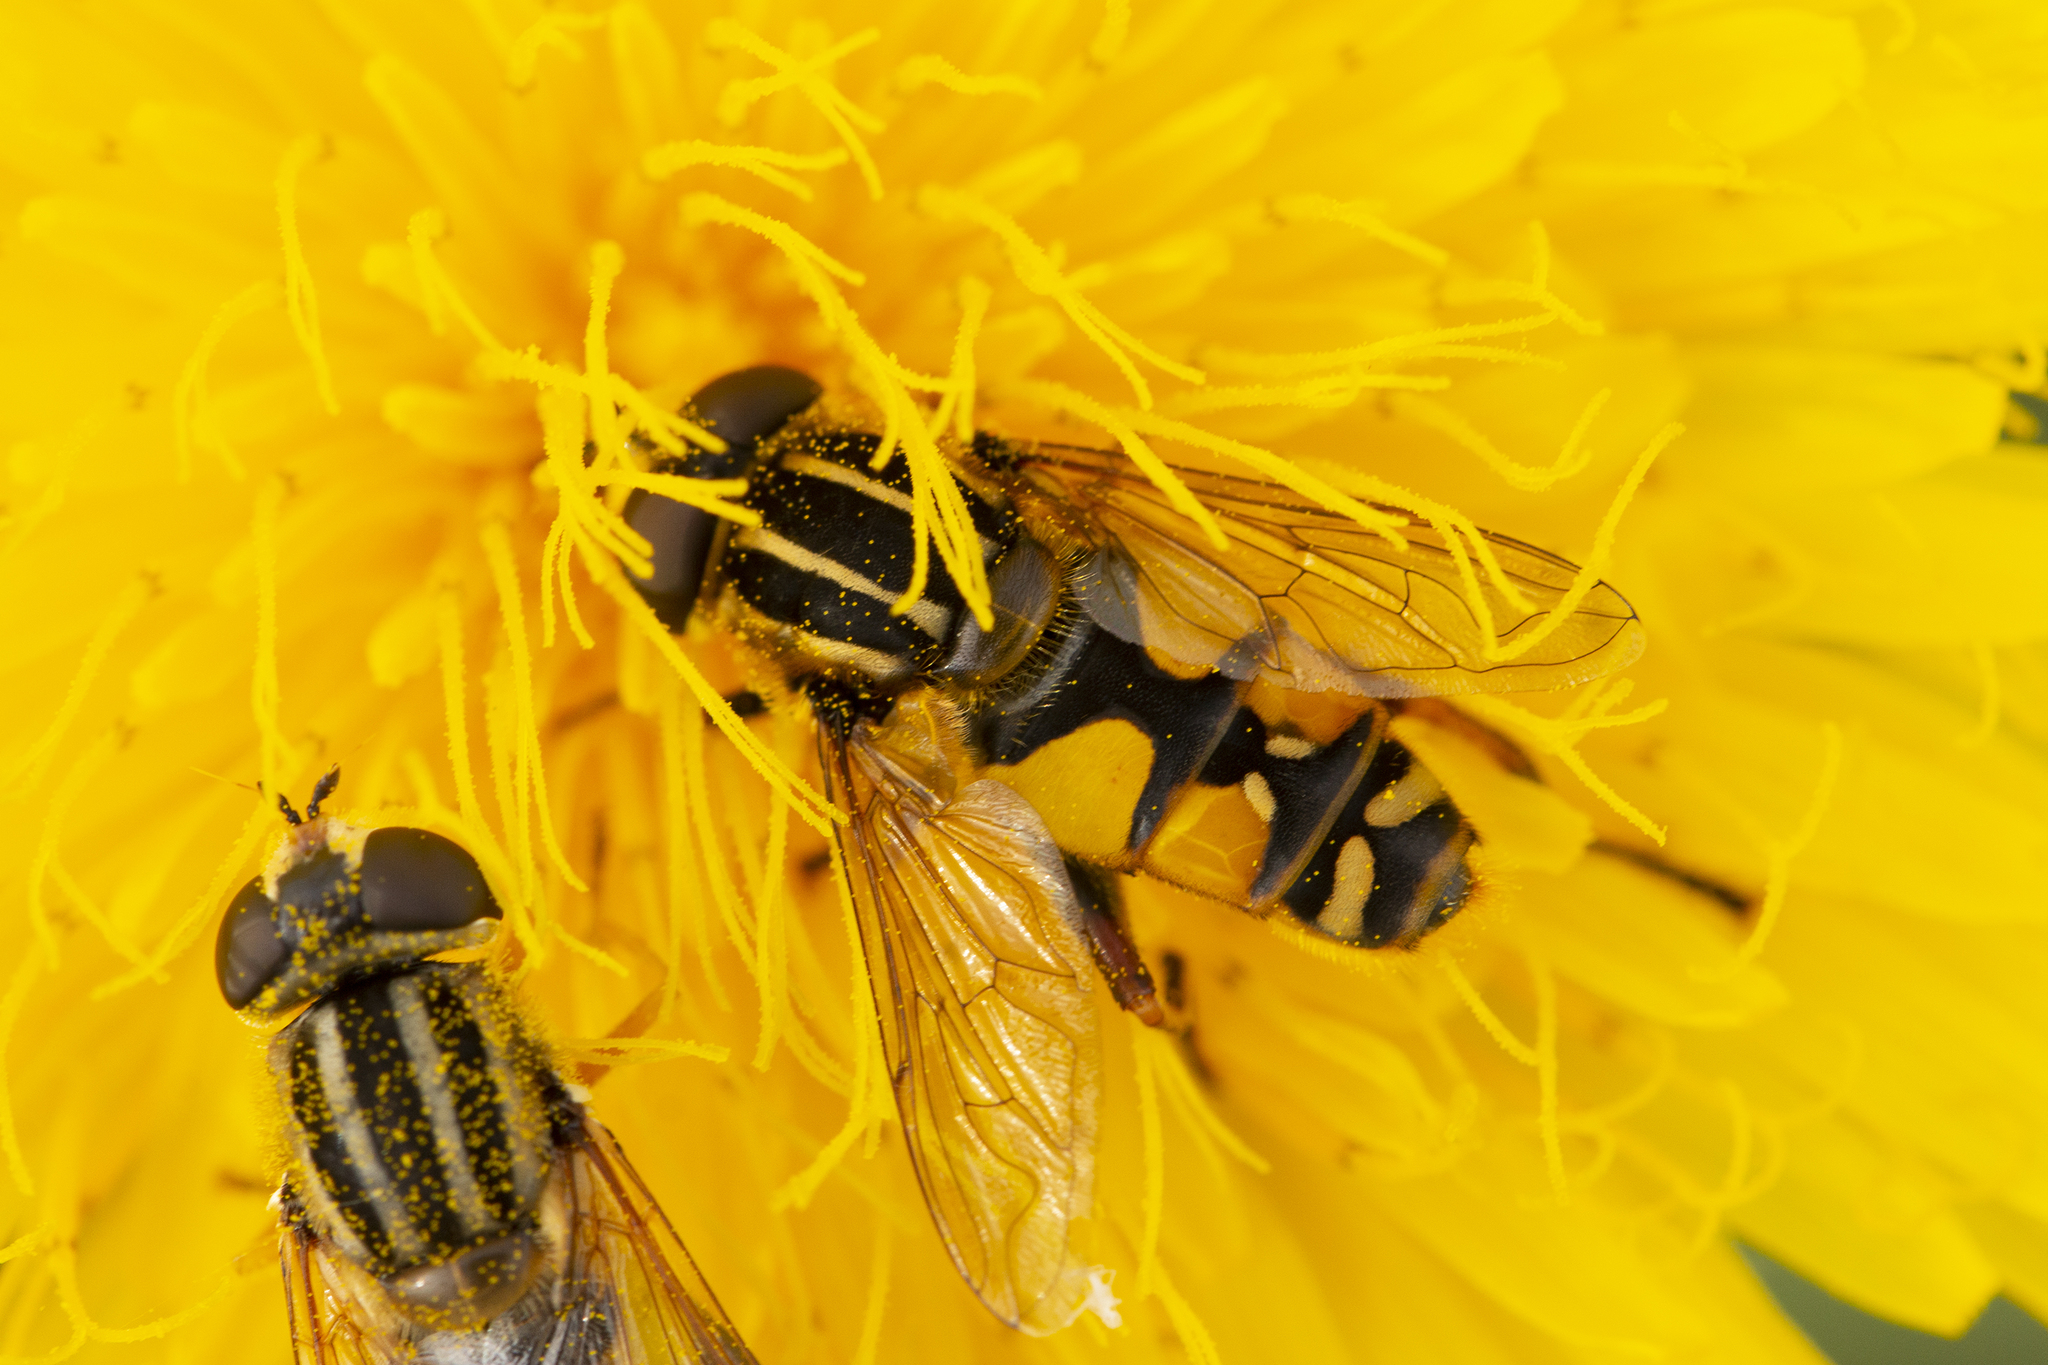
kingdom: Animalia
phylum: Arthropoda
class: Insecta
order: Diptera
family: Syrphidae
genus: Helophilus
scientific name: Helophilus pendulus
